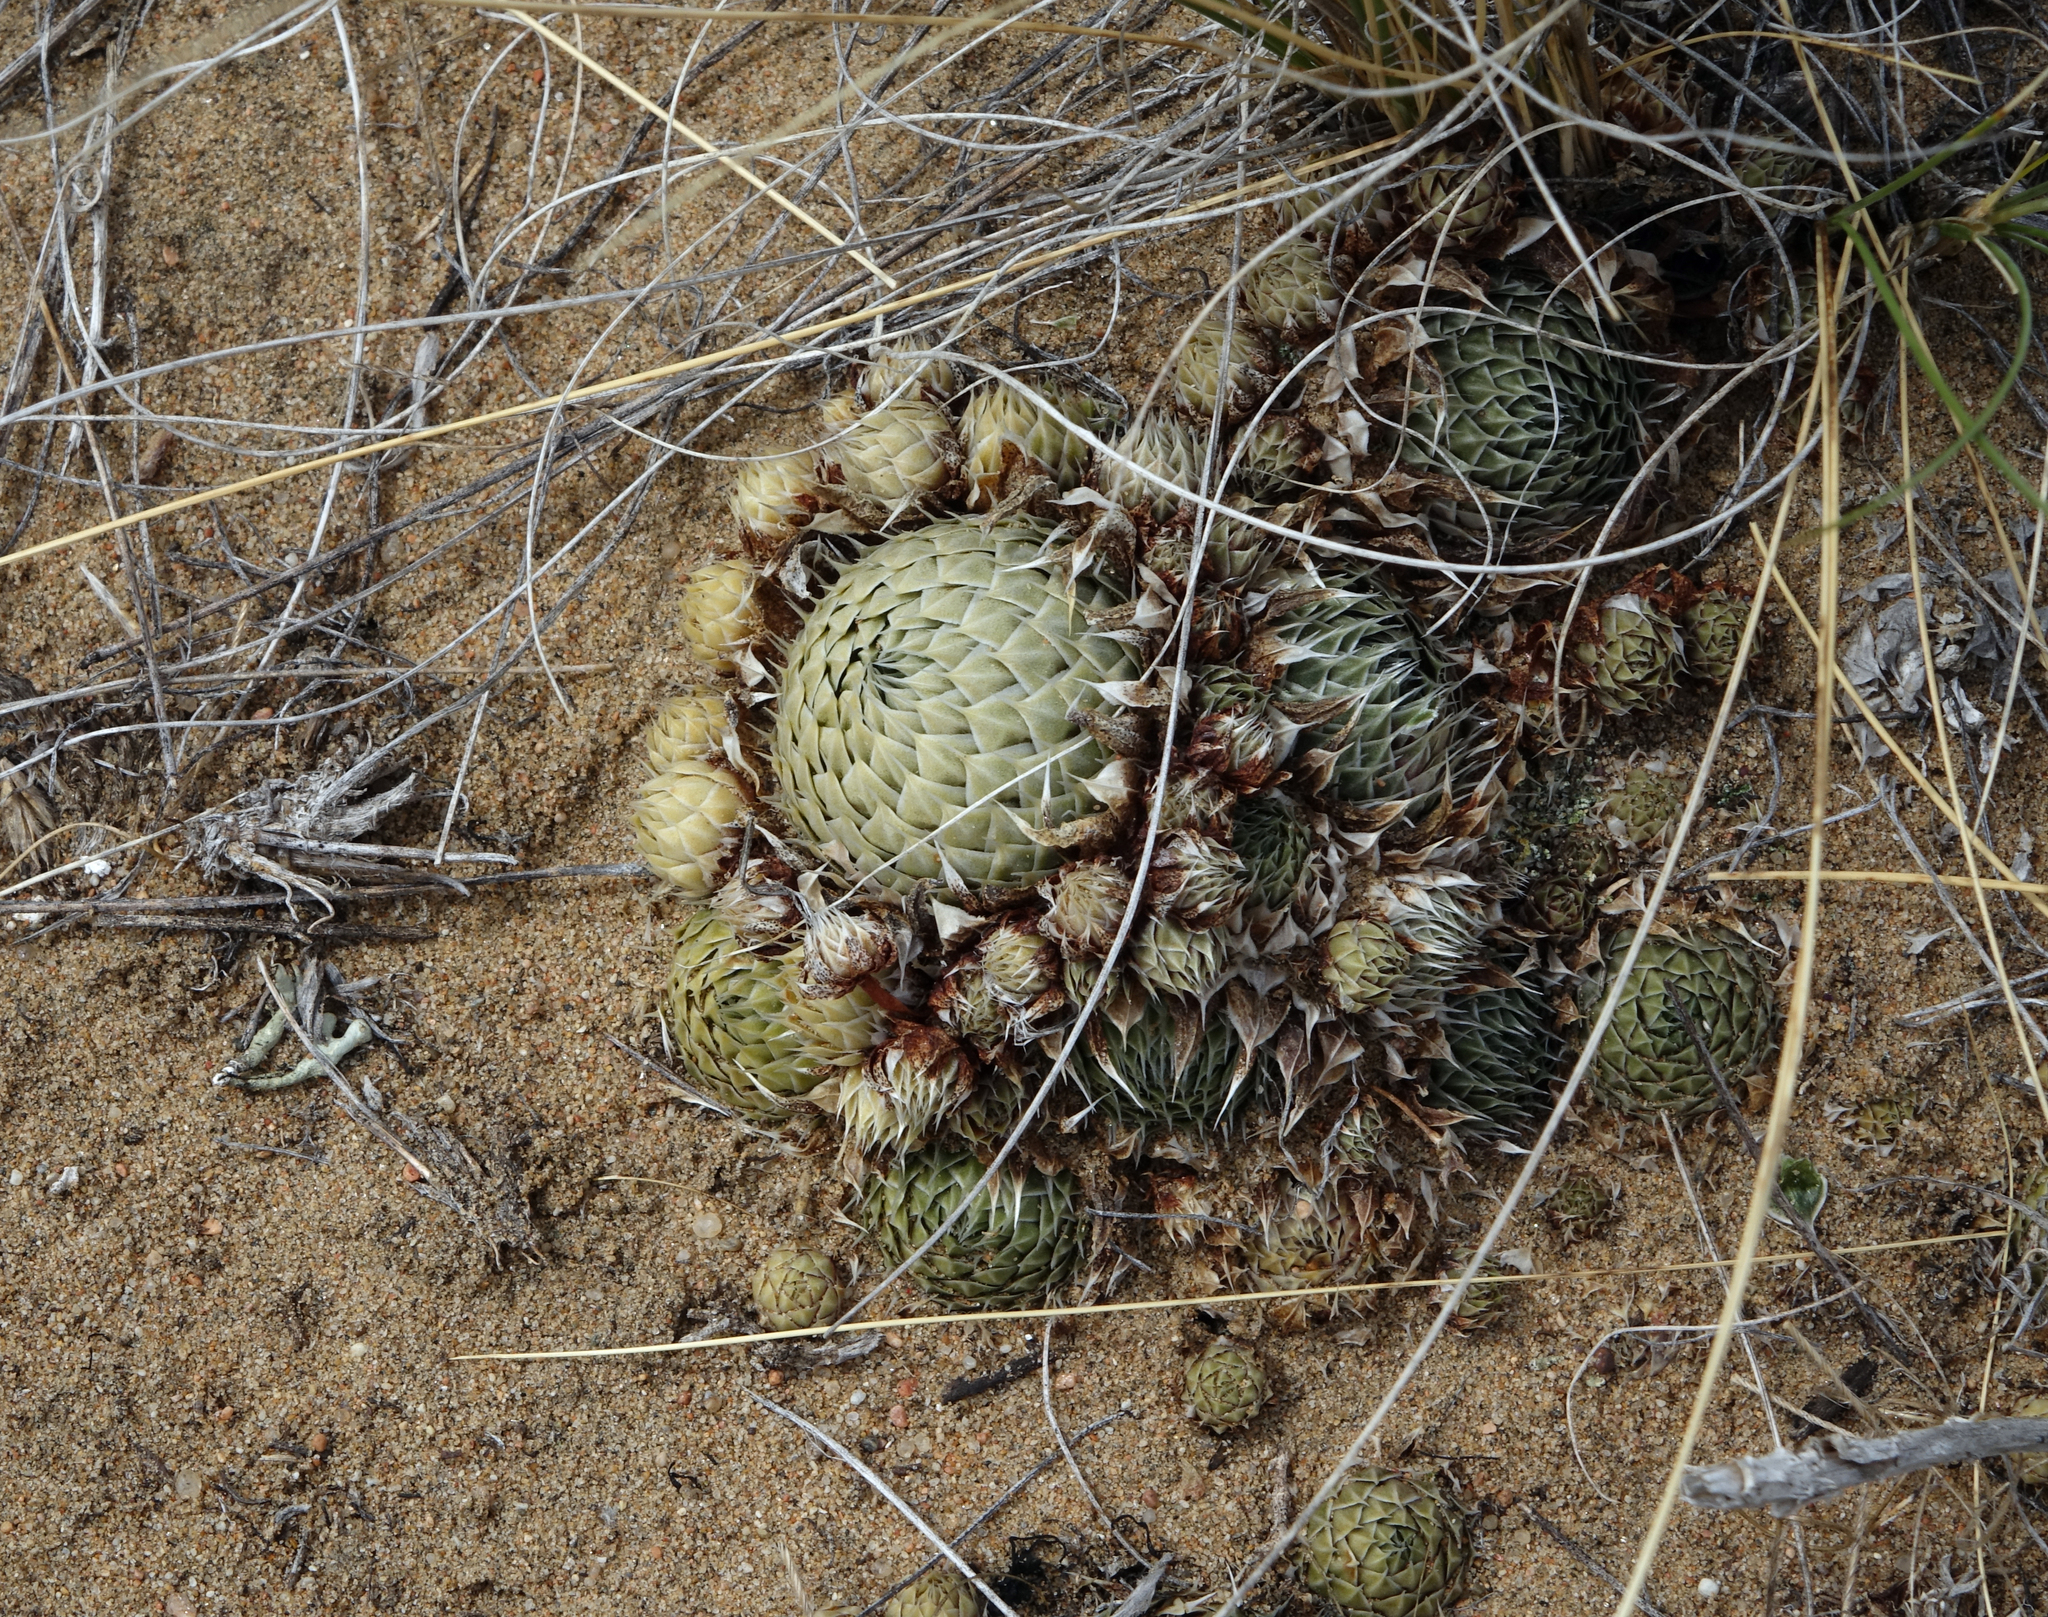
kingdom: Plantae
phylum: Tracheophyta
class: Magnoliopsida
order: Saxifragales
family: Crassulaceae
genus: Orostachys
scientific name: Orostachys spinosa
